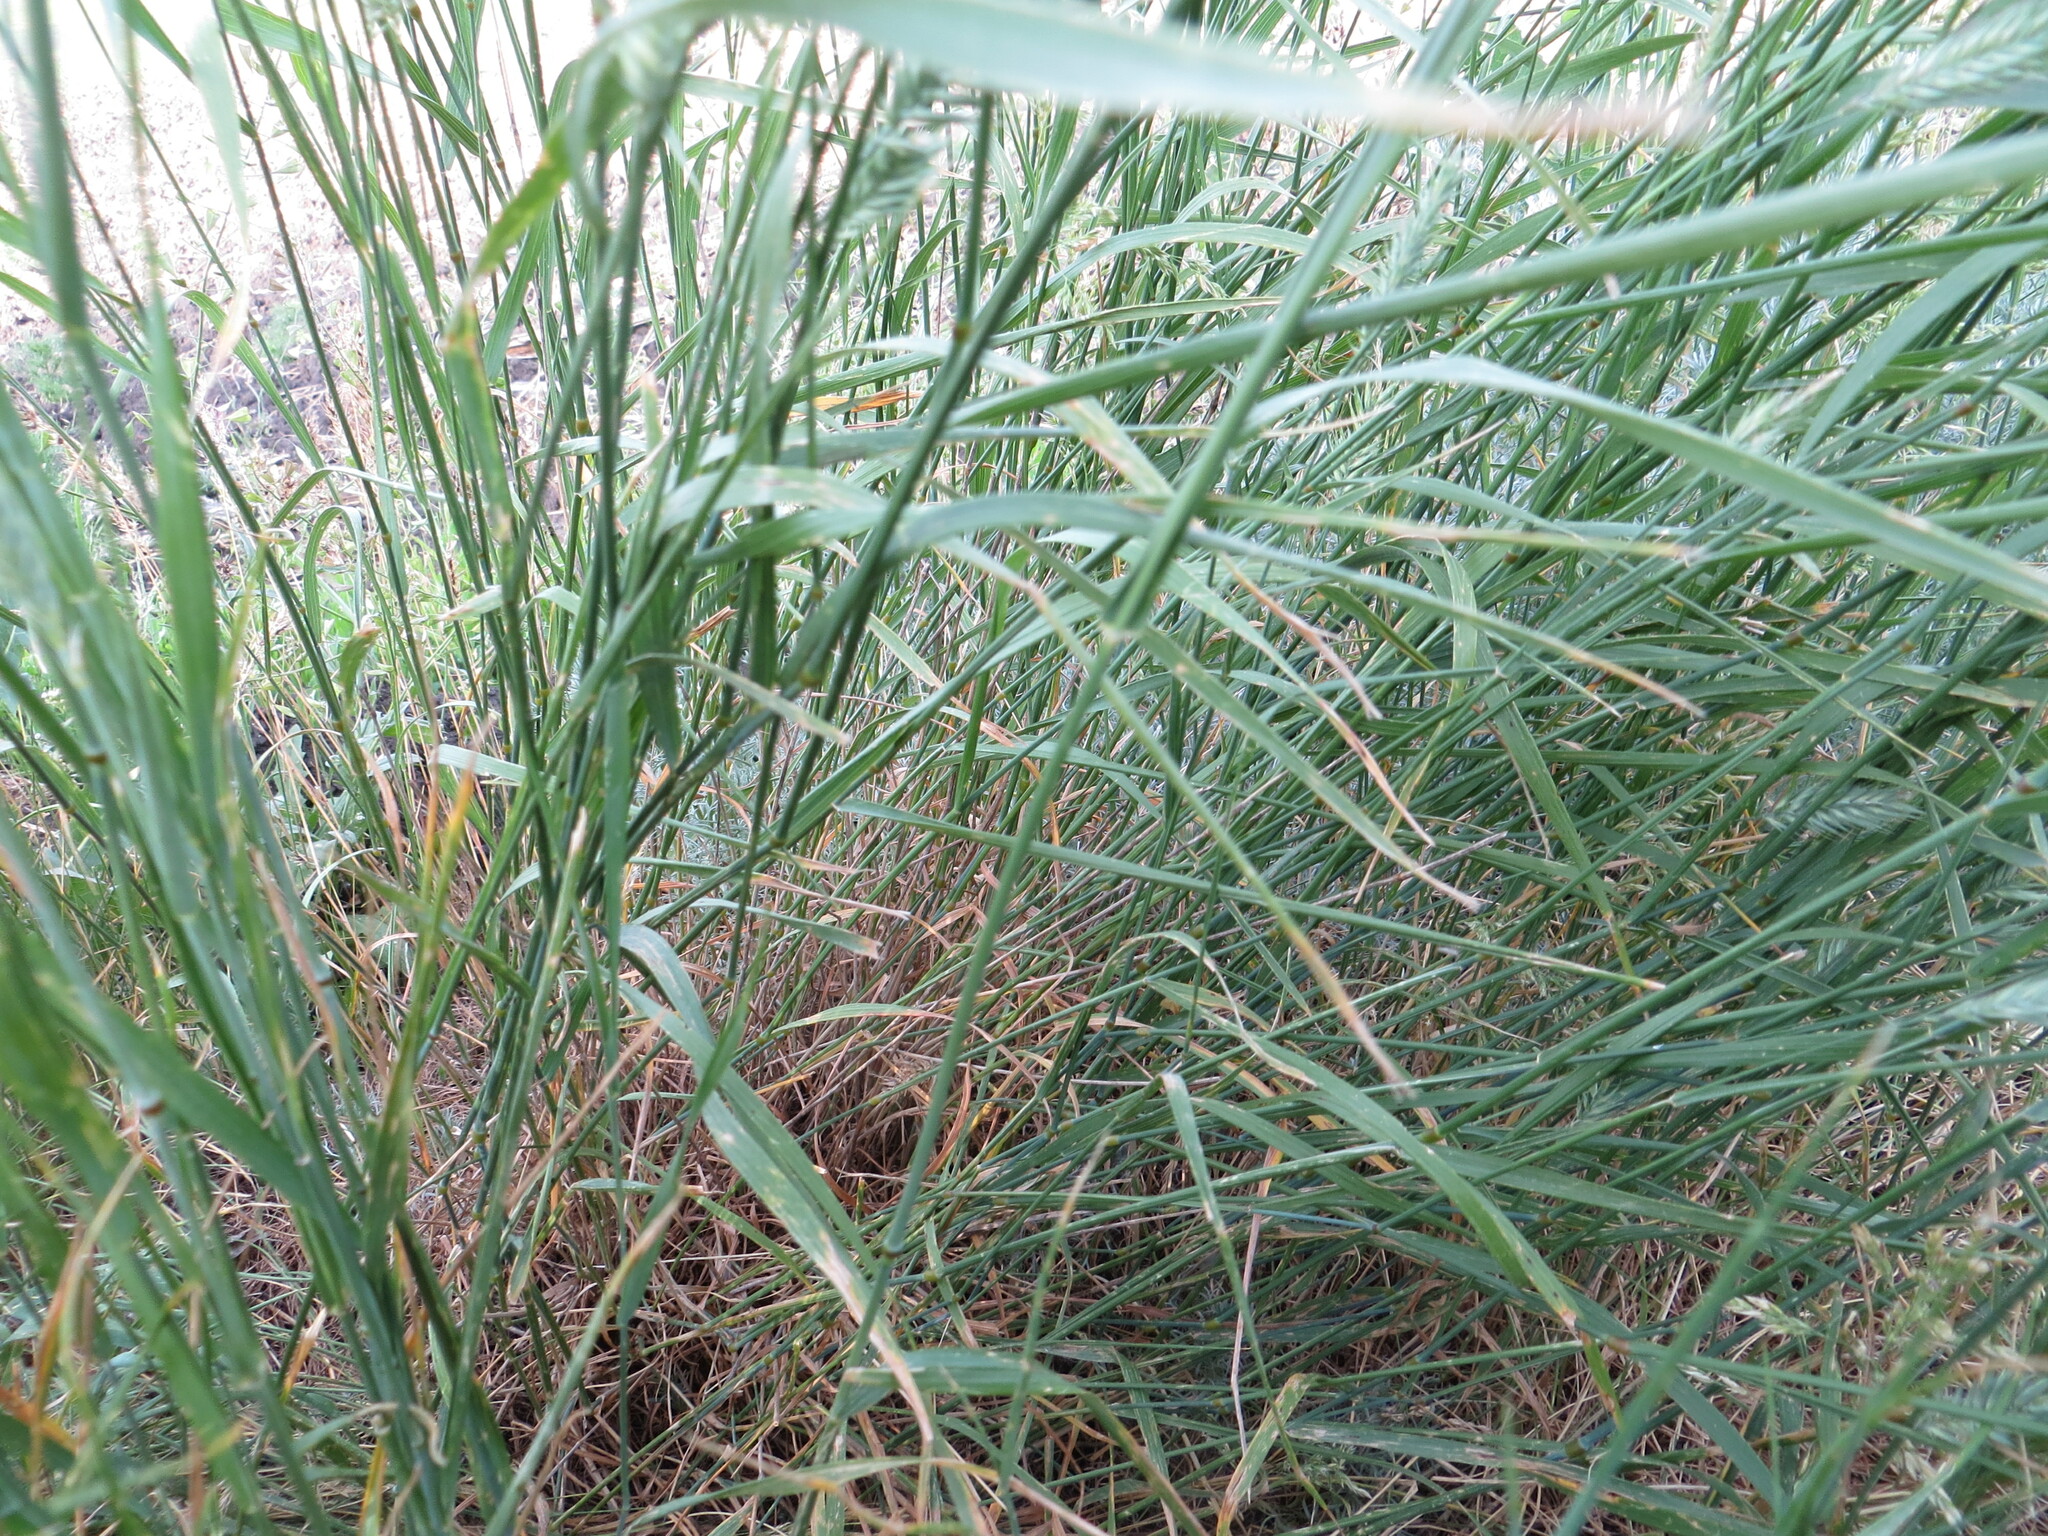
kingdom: Plantae
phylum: Tracheophyta
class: Liliopsida
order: Poales
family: Poaceae
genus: Agropyron
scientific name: Agropyron cristatum
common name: Crested wheatgrass
